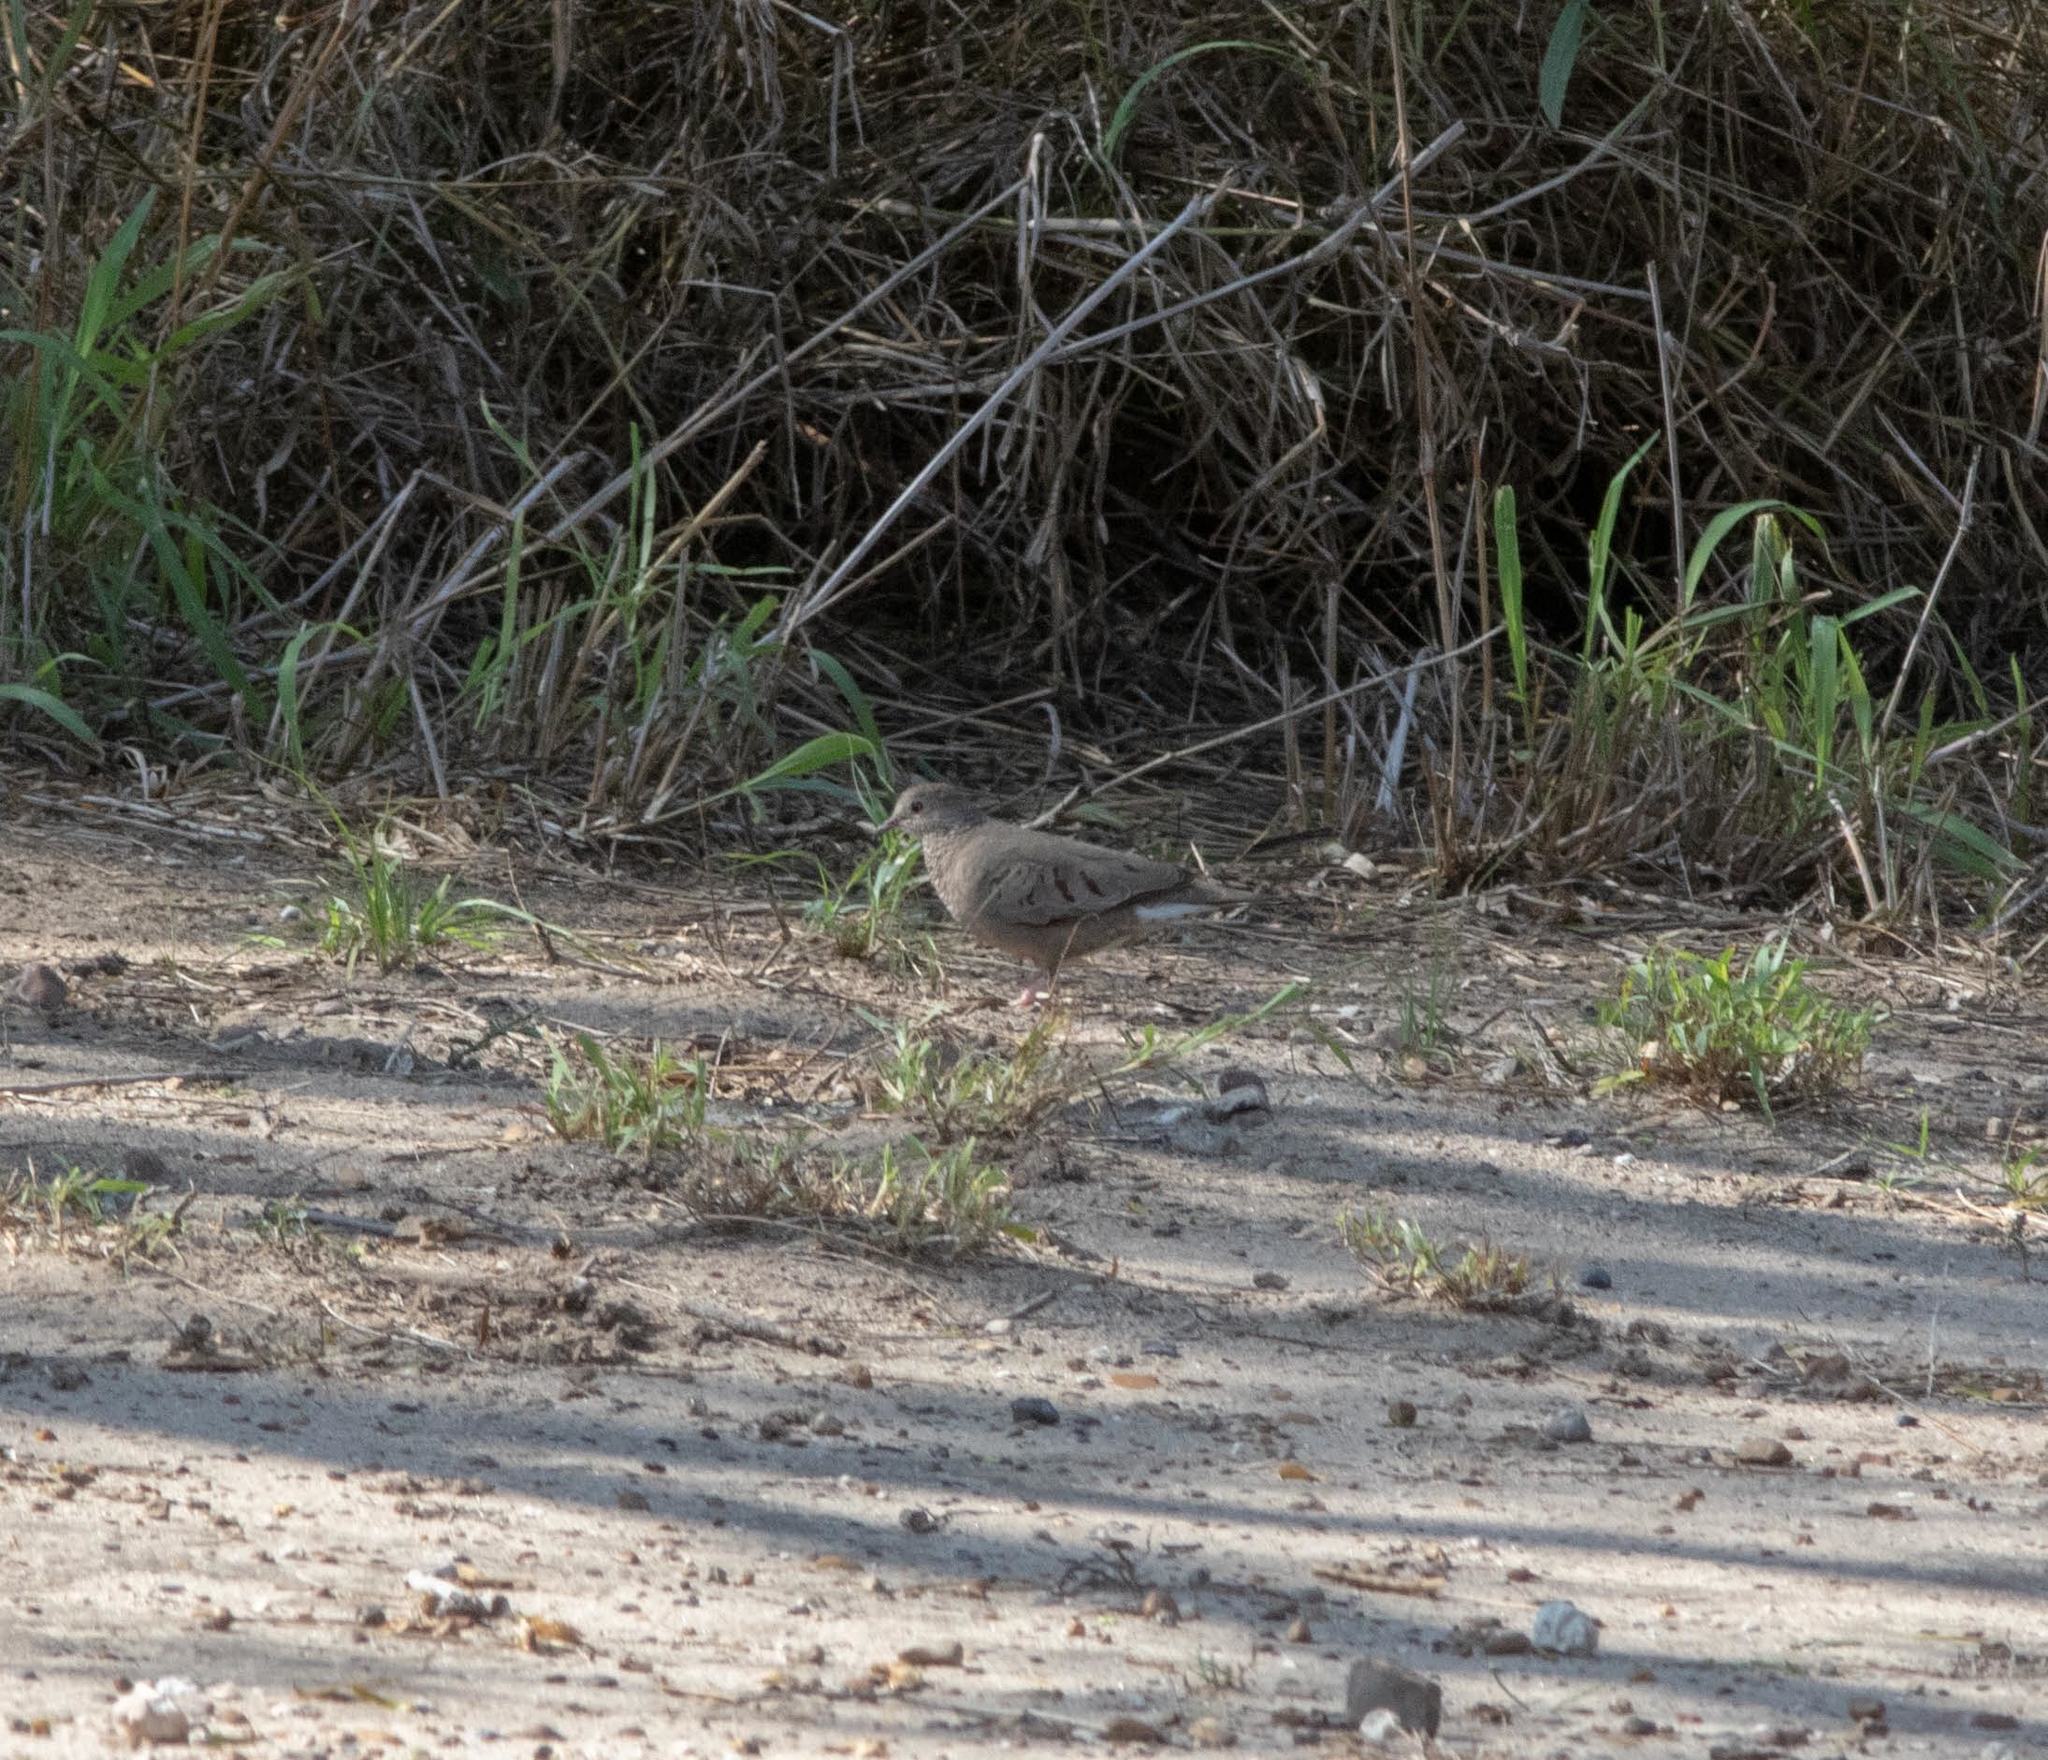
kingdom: Animalia
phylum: Chordata
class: Aves
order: Columbiformes
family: Columbidae
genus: Columbina
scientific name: Columbina passerina
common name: Common ground-dove
